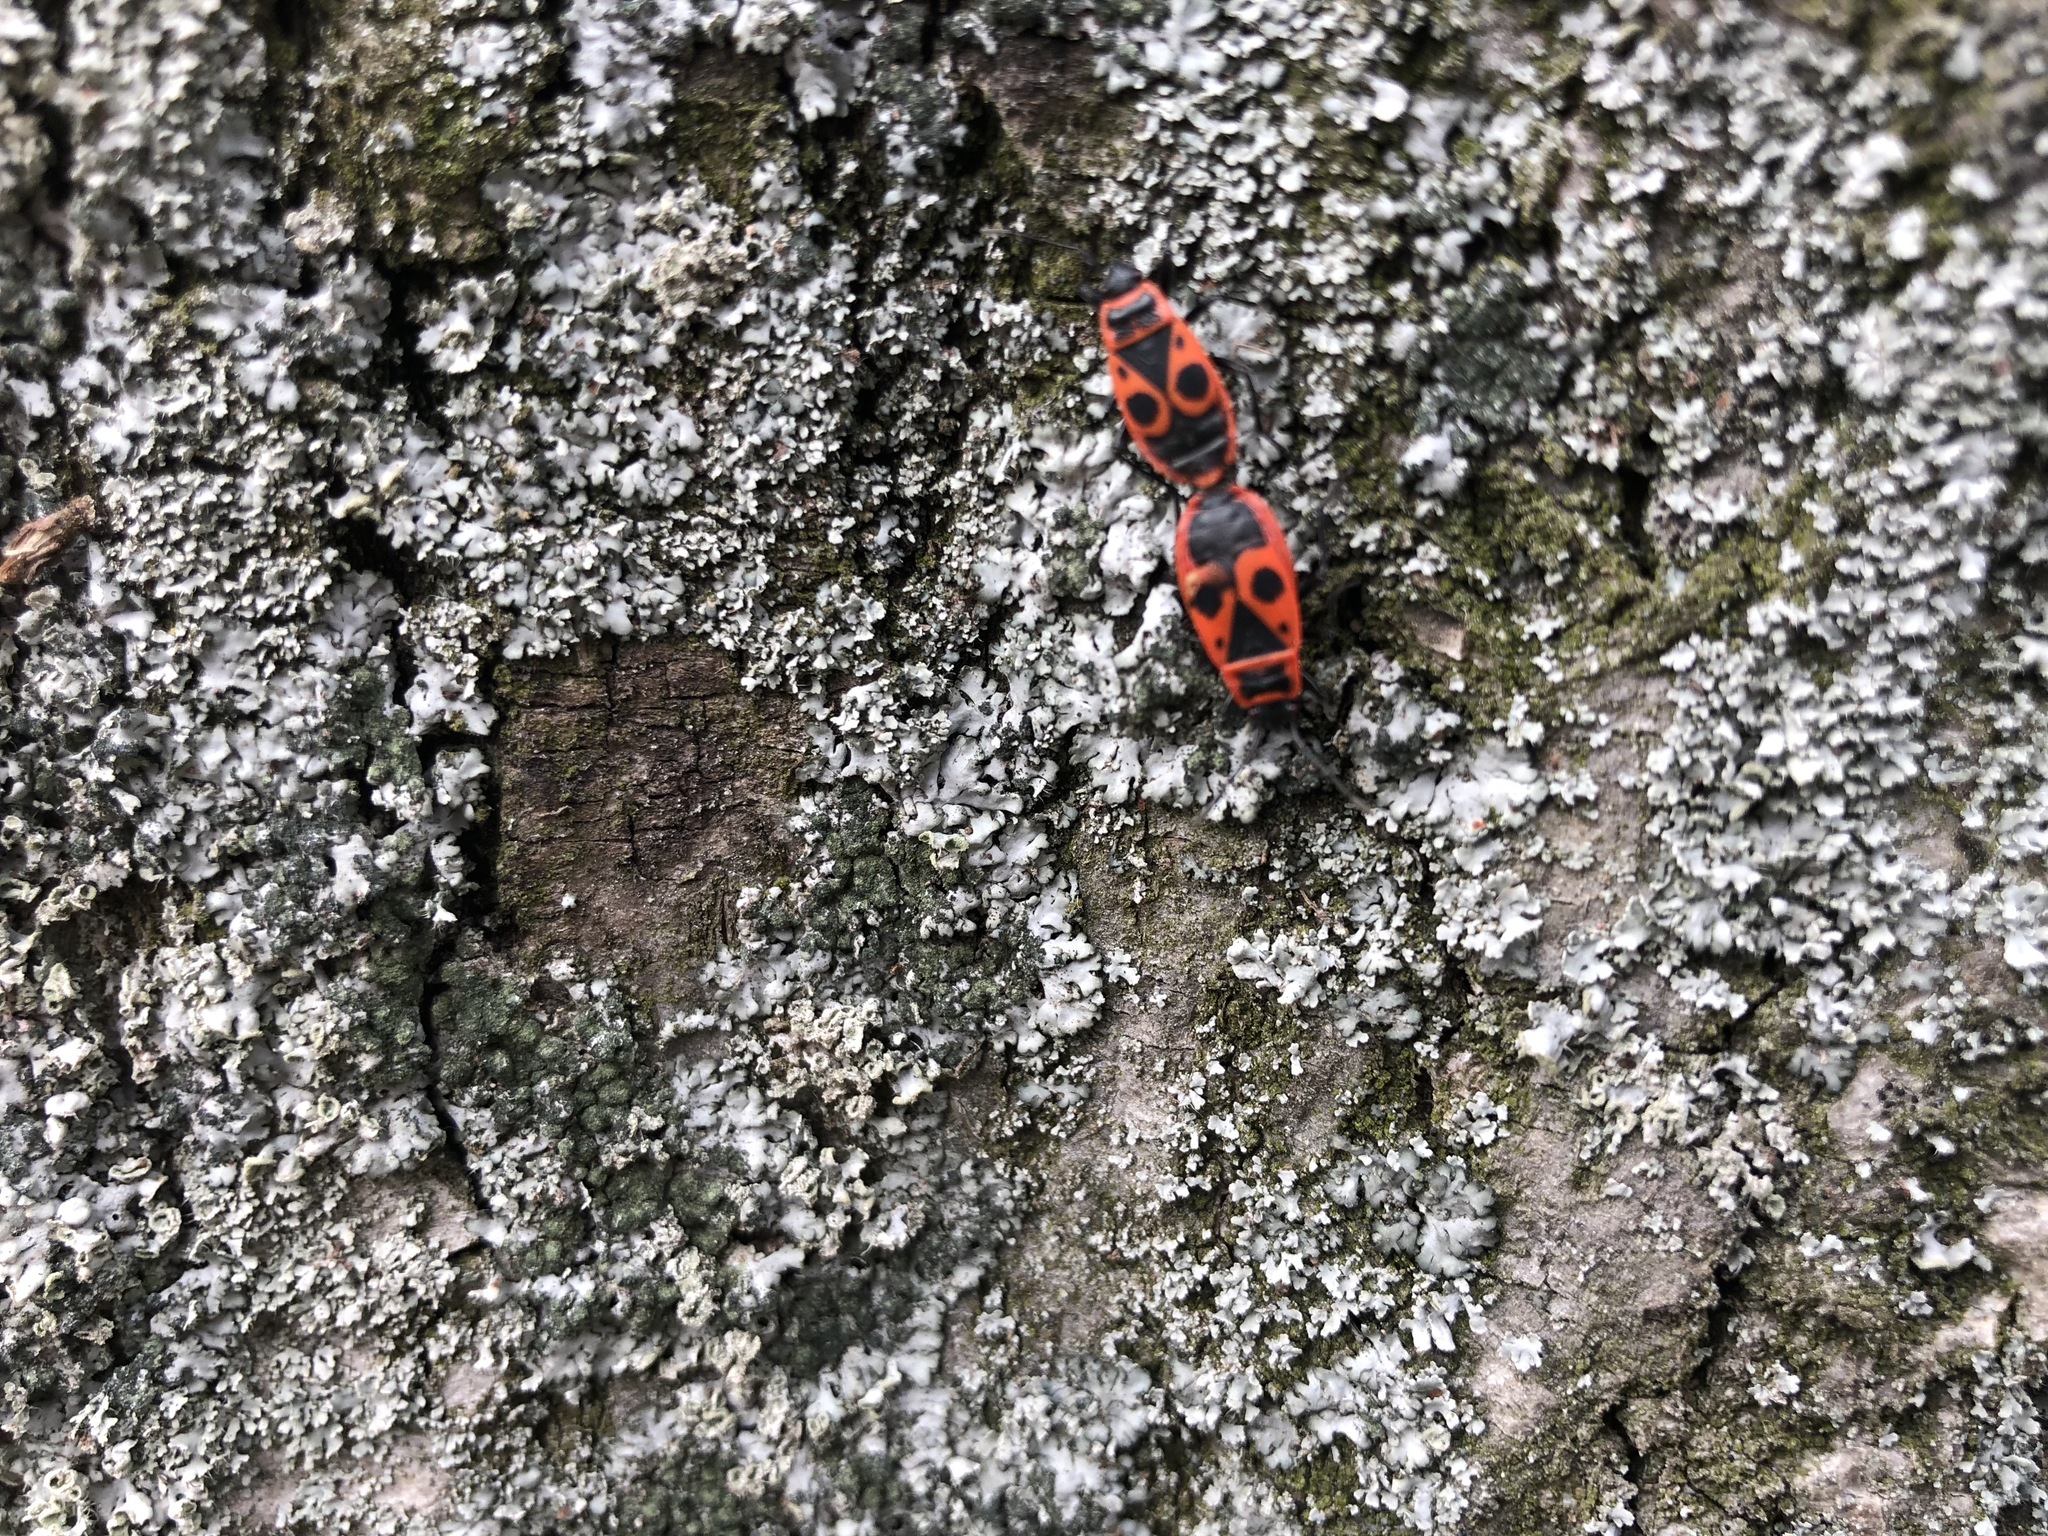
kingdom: Animalia
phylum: Arthropoda
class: Insecta
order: Hemiptera
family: Pyrrhocoridae
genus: Pyrrhocoris
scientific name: Pyrrhocoris apterus
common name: Firebug
